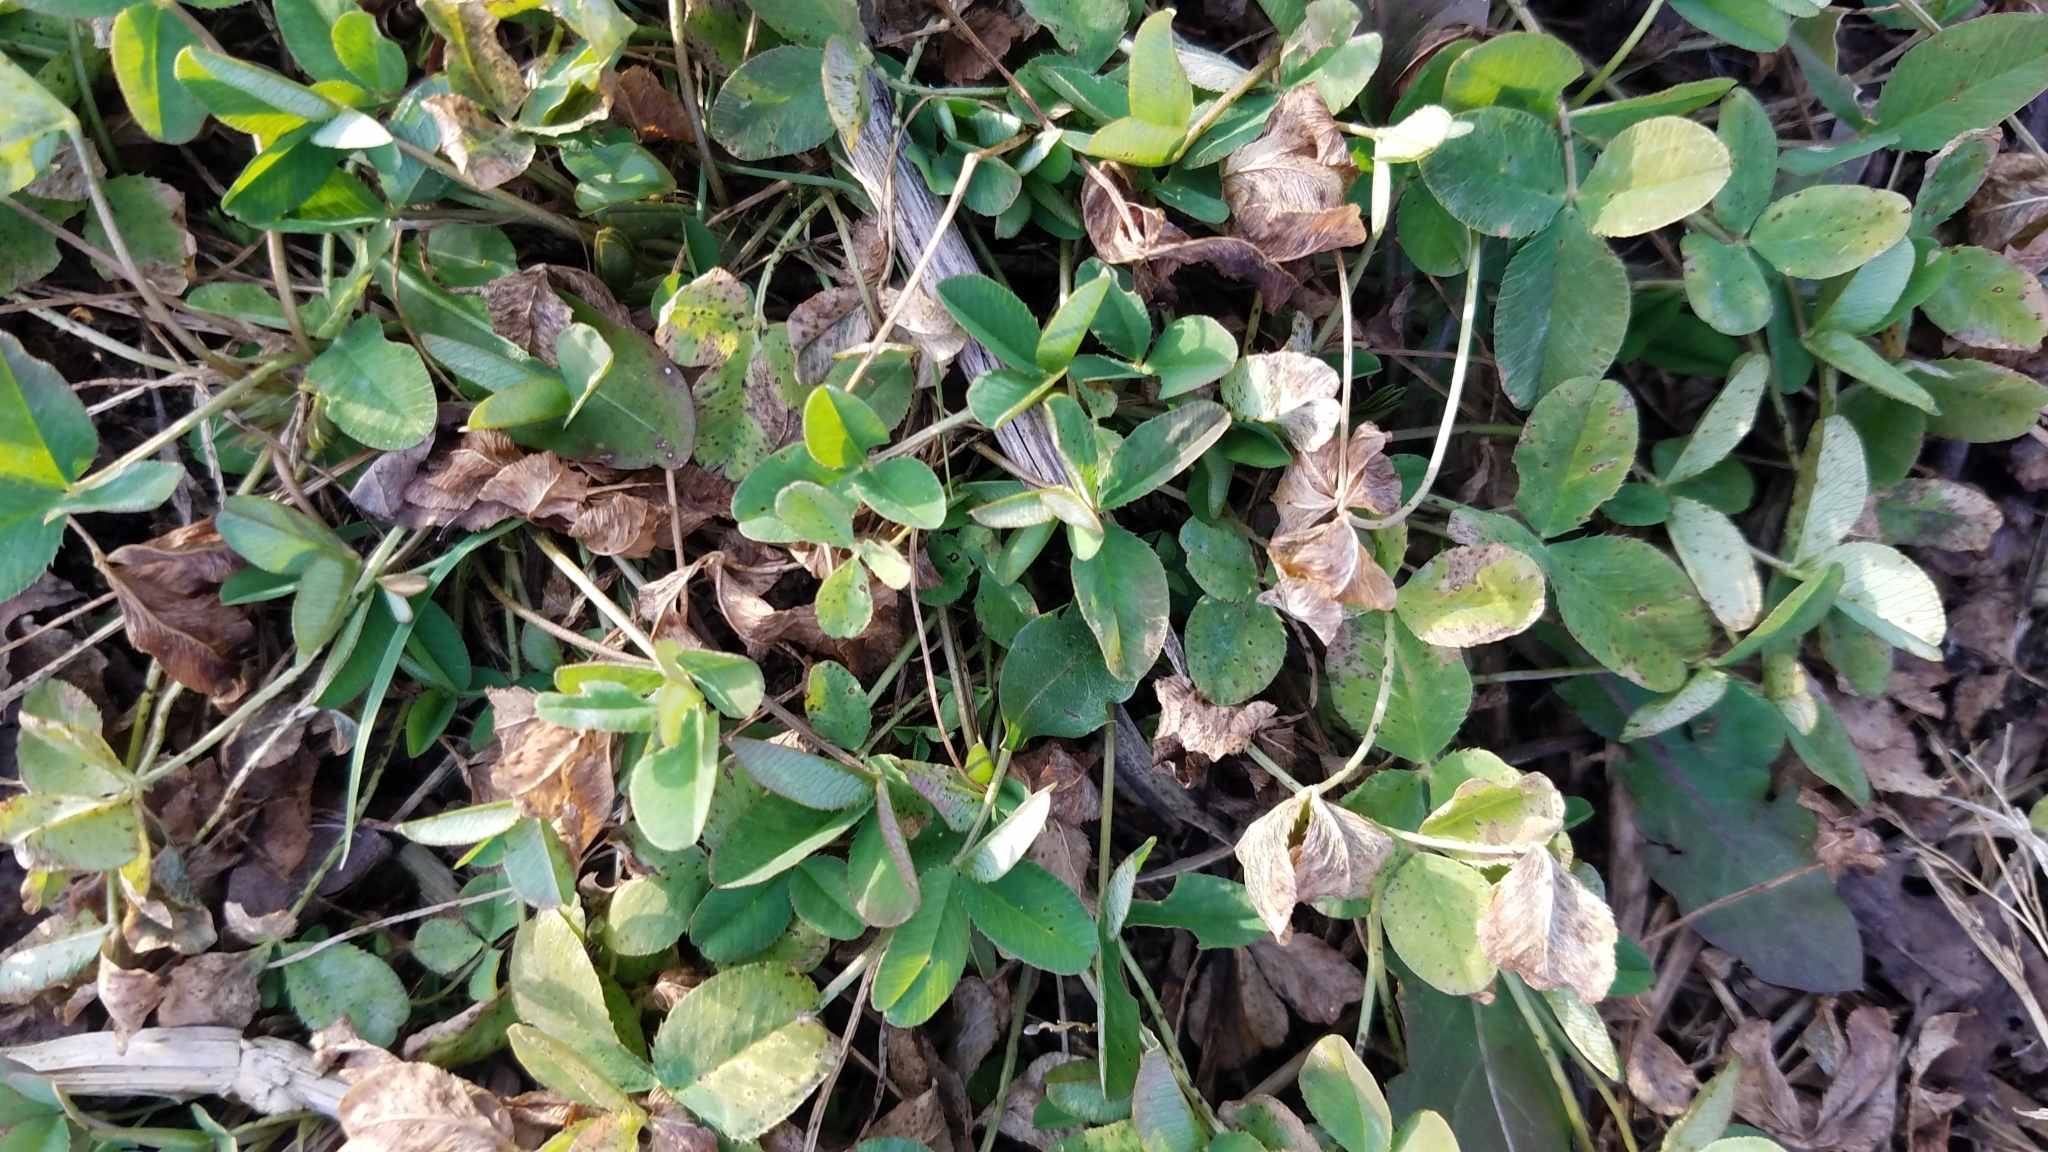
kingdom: Plantae
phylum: Tracheophyta
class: Magnoliopsida
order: Fabales
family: Fabaceae
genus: Trifolium
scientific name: Trifolium repens
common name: White clover
